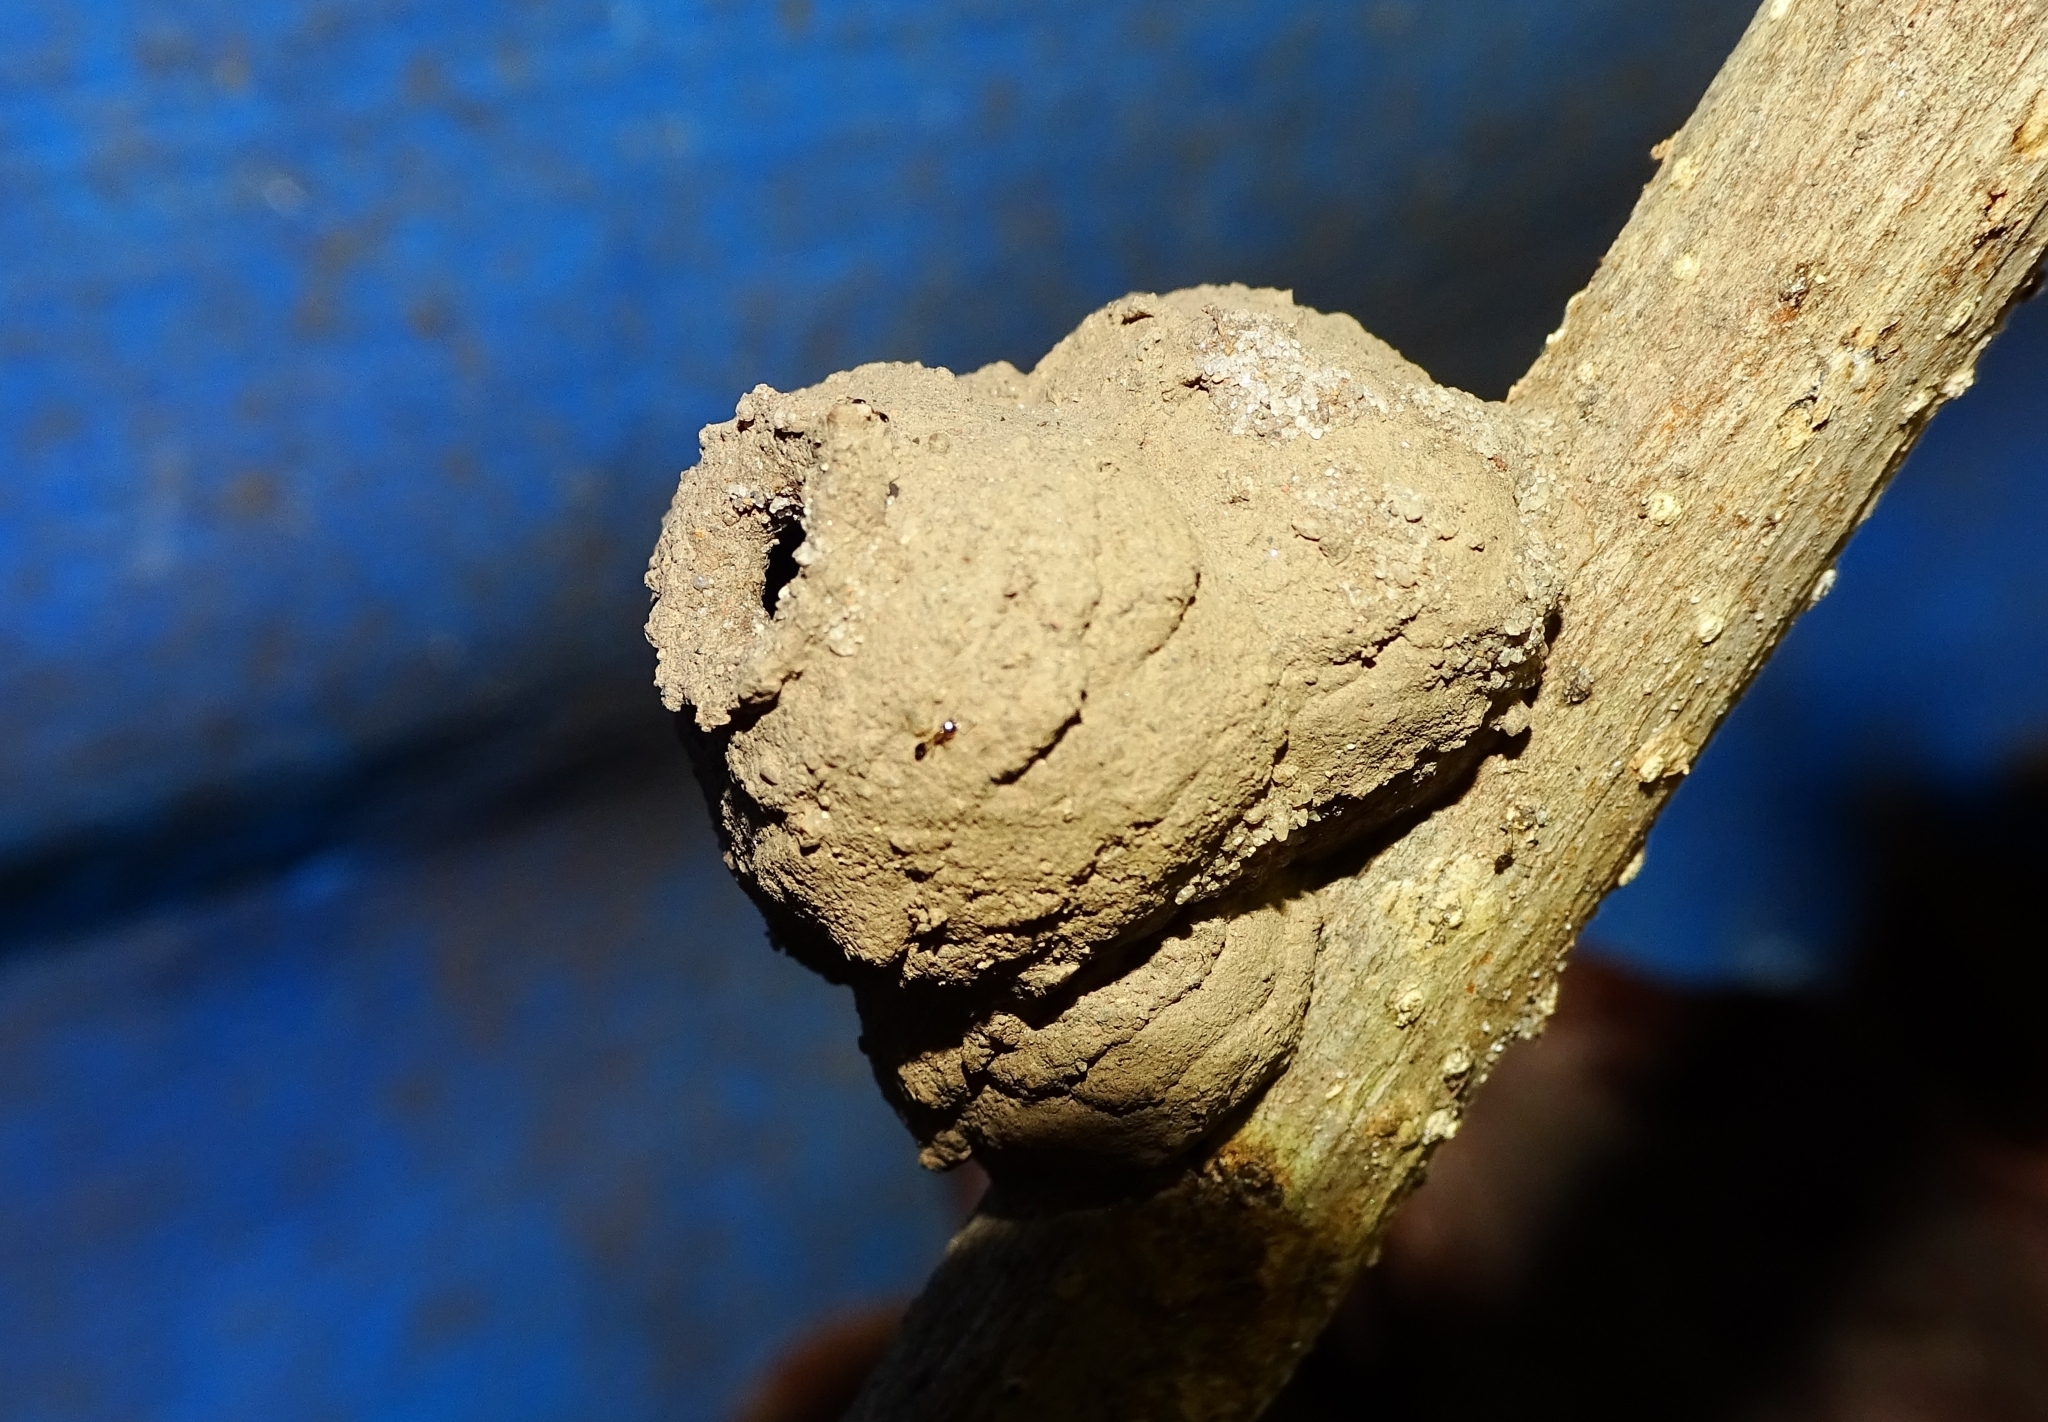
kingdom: Animalia
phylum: Arthropoda
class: Insecta
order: Hymenoptera
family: Eumenidae
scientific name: Eumenidae
